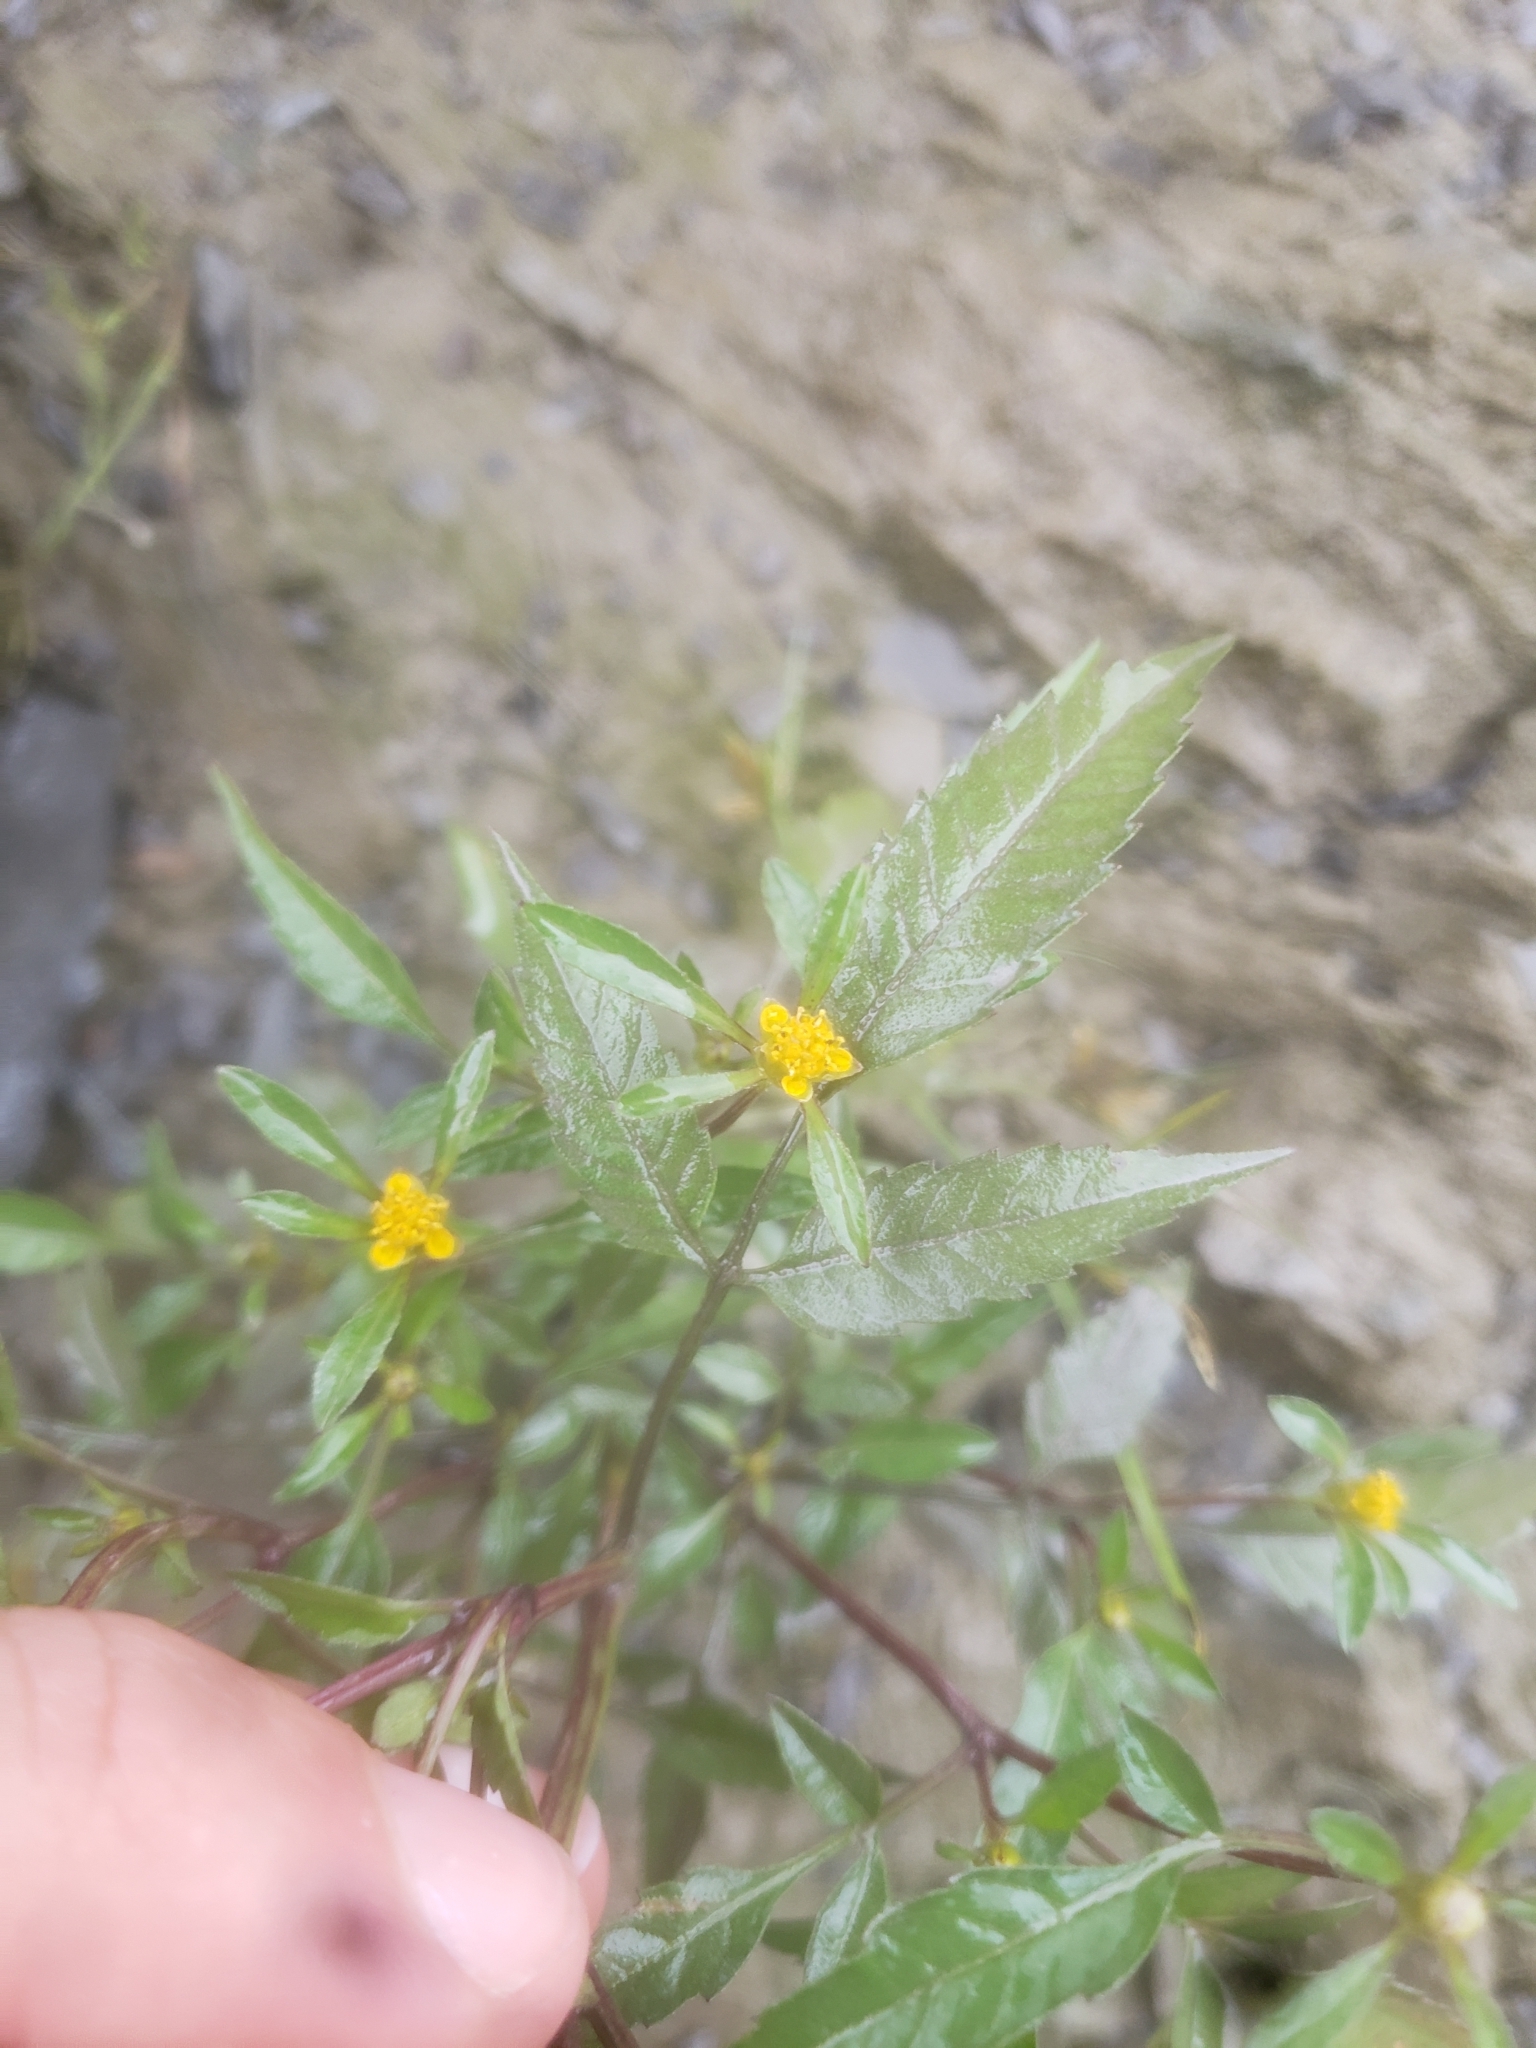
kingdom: Plantae
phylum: Tracheophyta
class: Magnoliopsida
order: Asterales
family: Asteraceae
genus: Bidens
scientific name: Bidens frondosa
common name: Beggarticks
